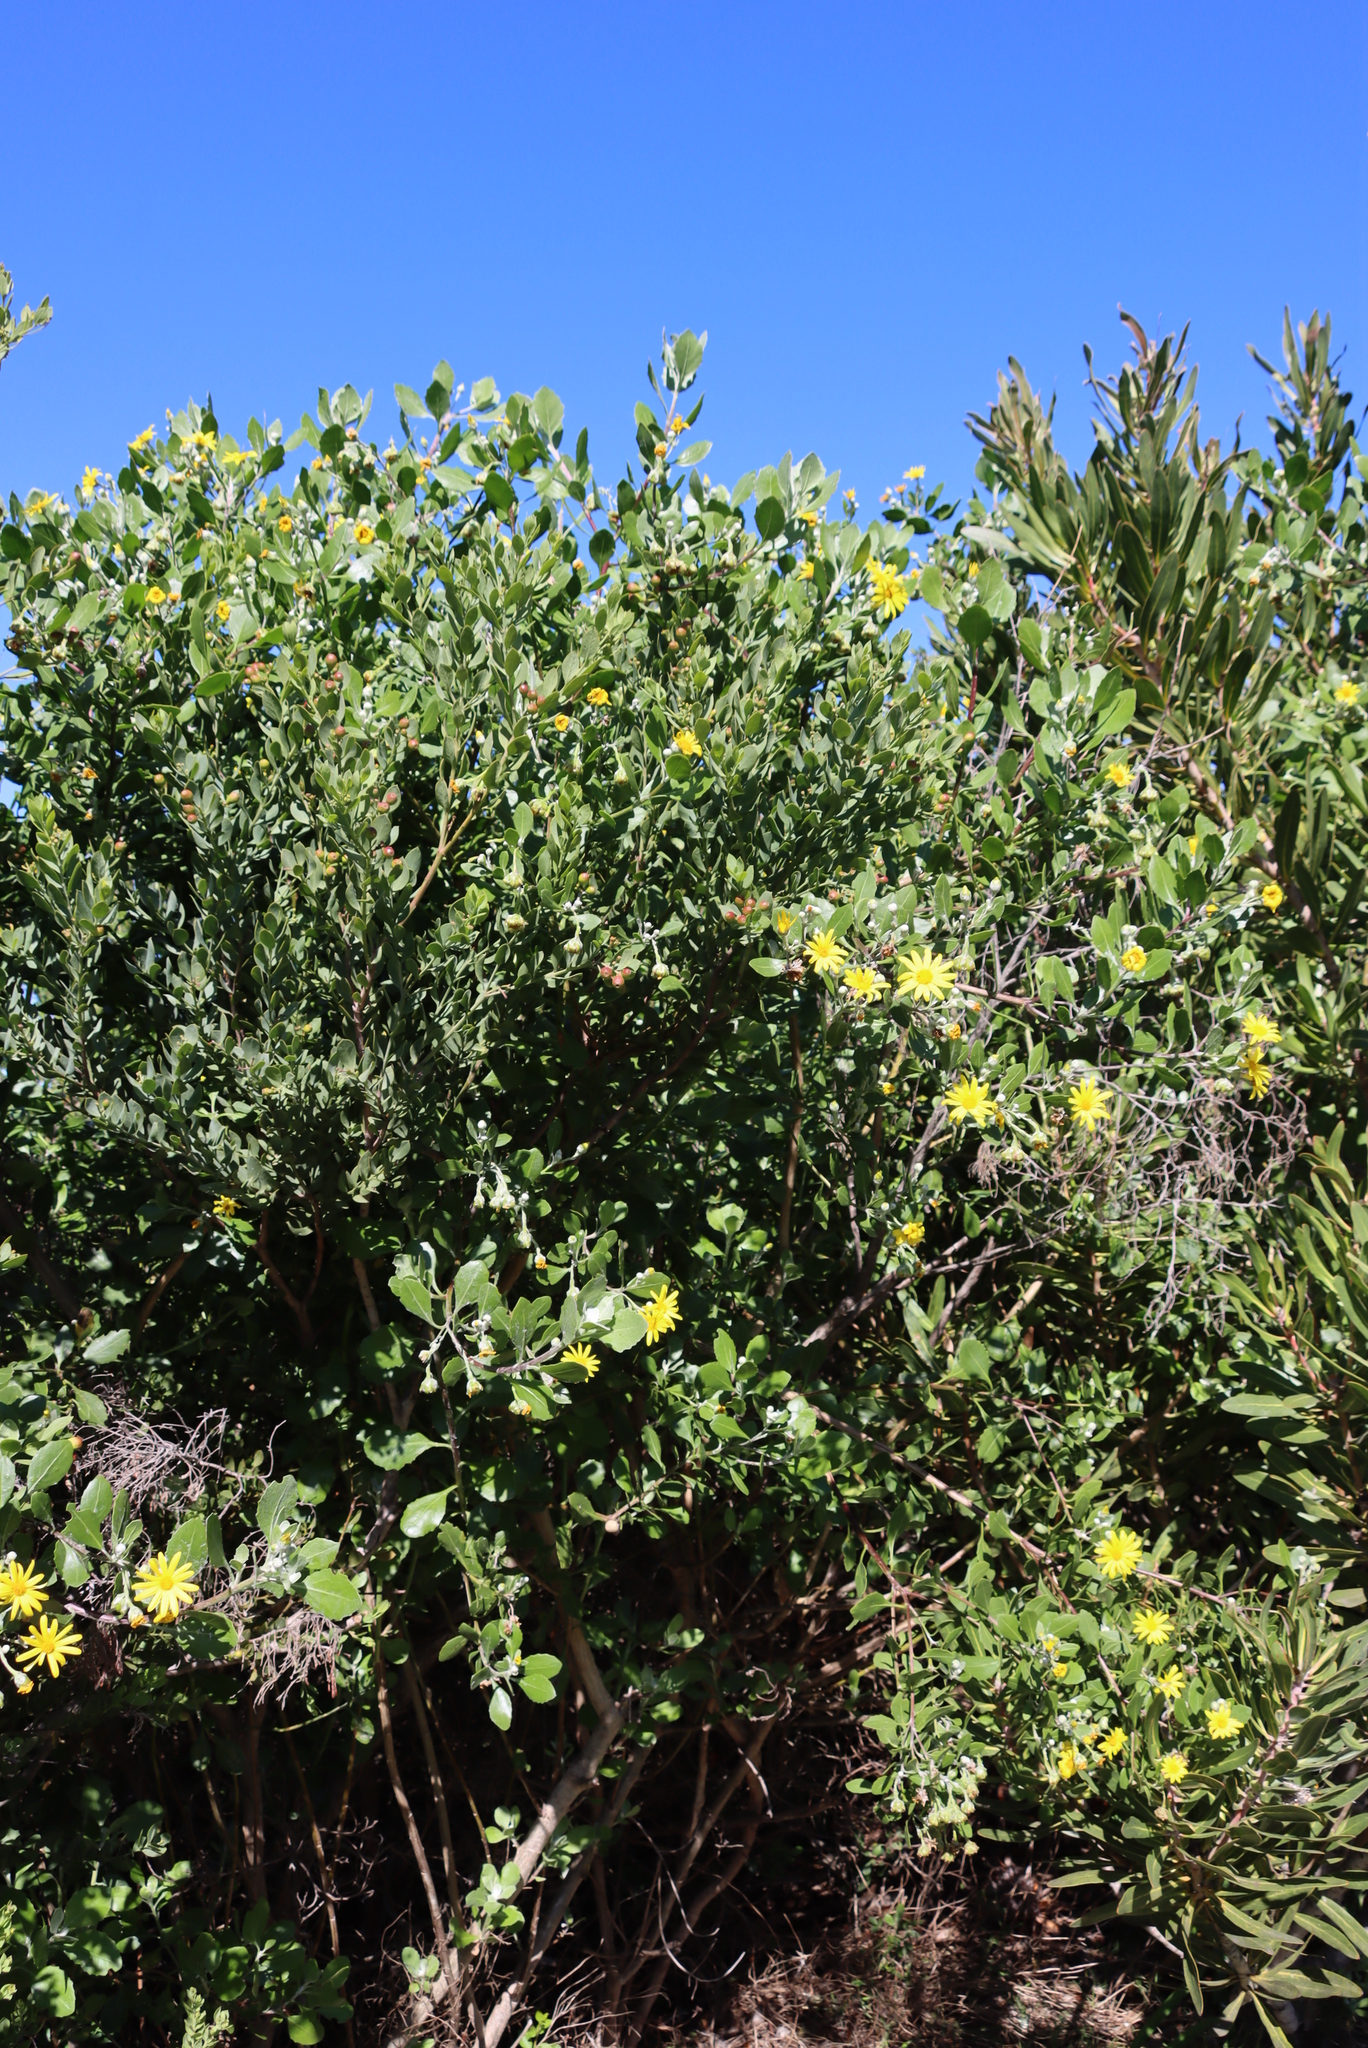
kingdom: Plantae
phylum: Tracheophyta
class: Magnoliopsida
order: Asterales
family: Asteraceae
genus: Osteospermum
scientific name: Osteospermum moniliferum
